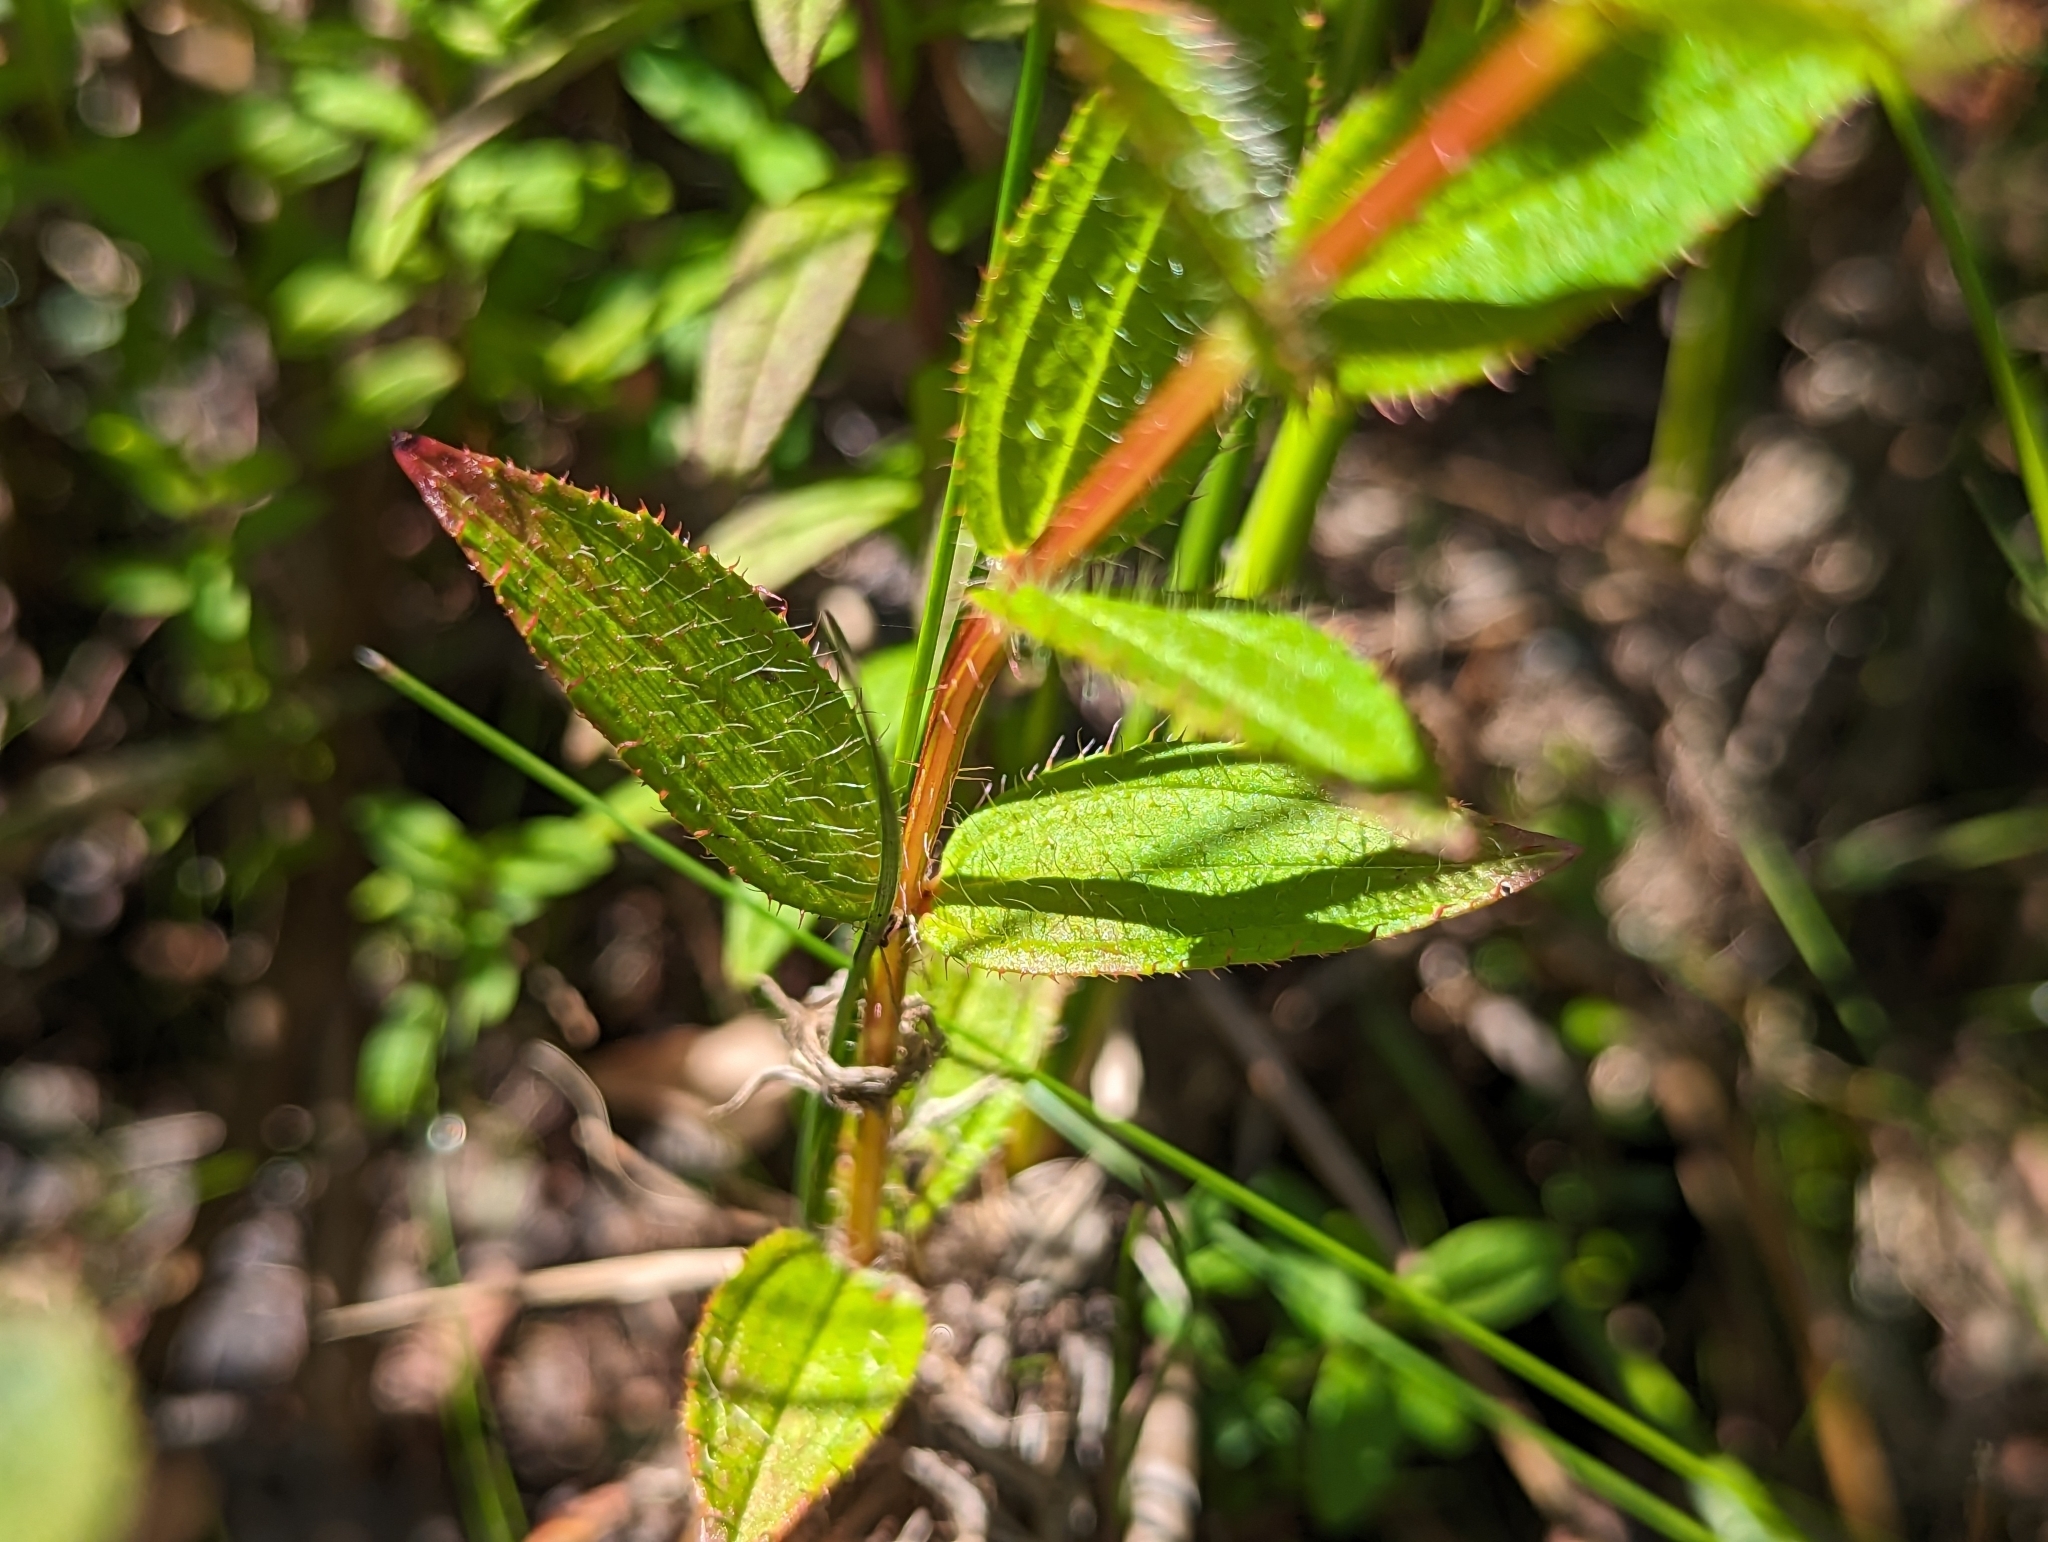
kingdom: Plantae
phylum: Tracheophyta
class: Magnoliopsida
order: Myrtales
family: Melastomataceae
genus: Rhexia
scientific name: Rhexia virginica
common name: Common meadow beauty
